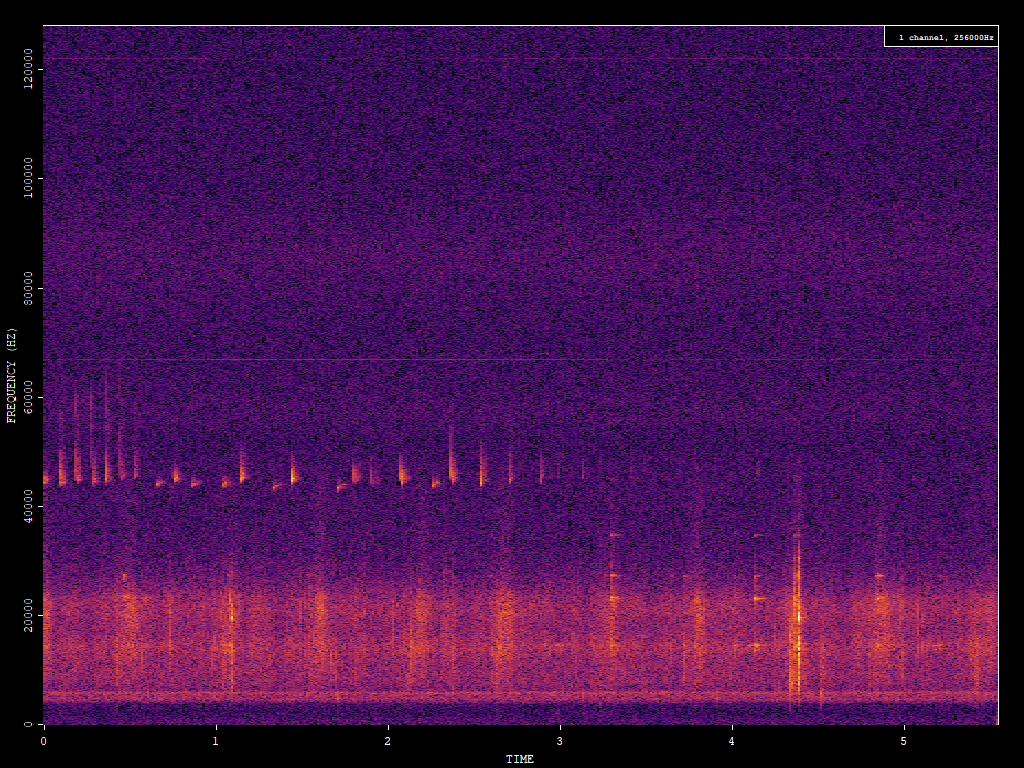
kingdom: Animalia
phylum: Chordata
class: Mammalia
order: Chiroptera
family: Vespertilionidae
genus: Pipistrellus
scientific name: Pipistrellus pipistrellus
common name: Common pipistrelle
